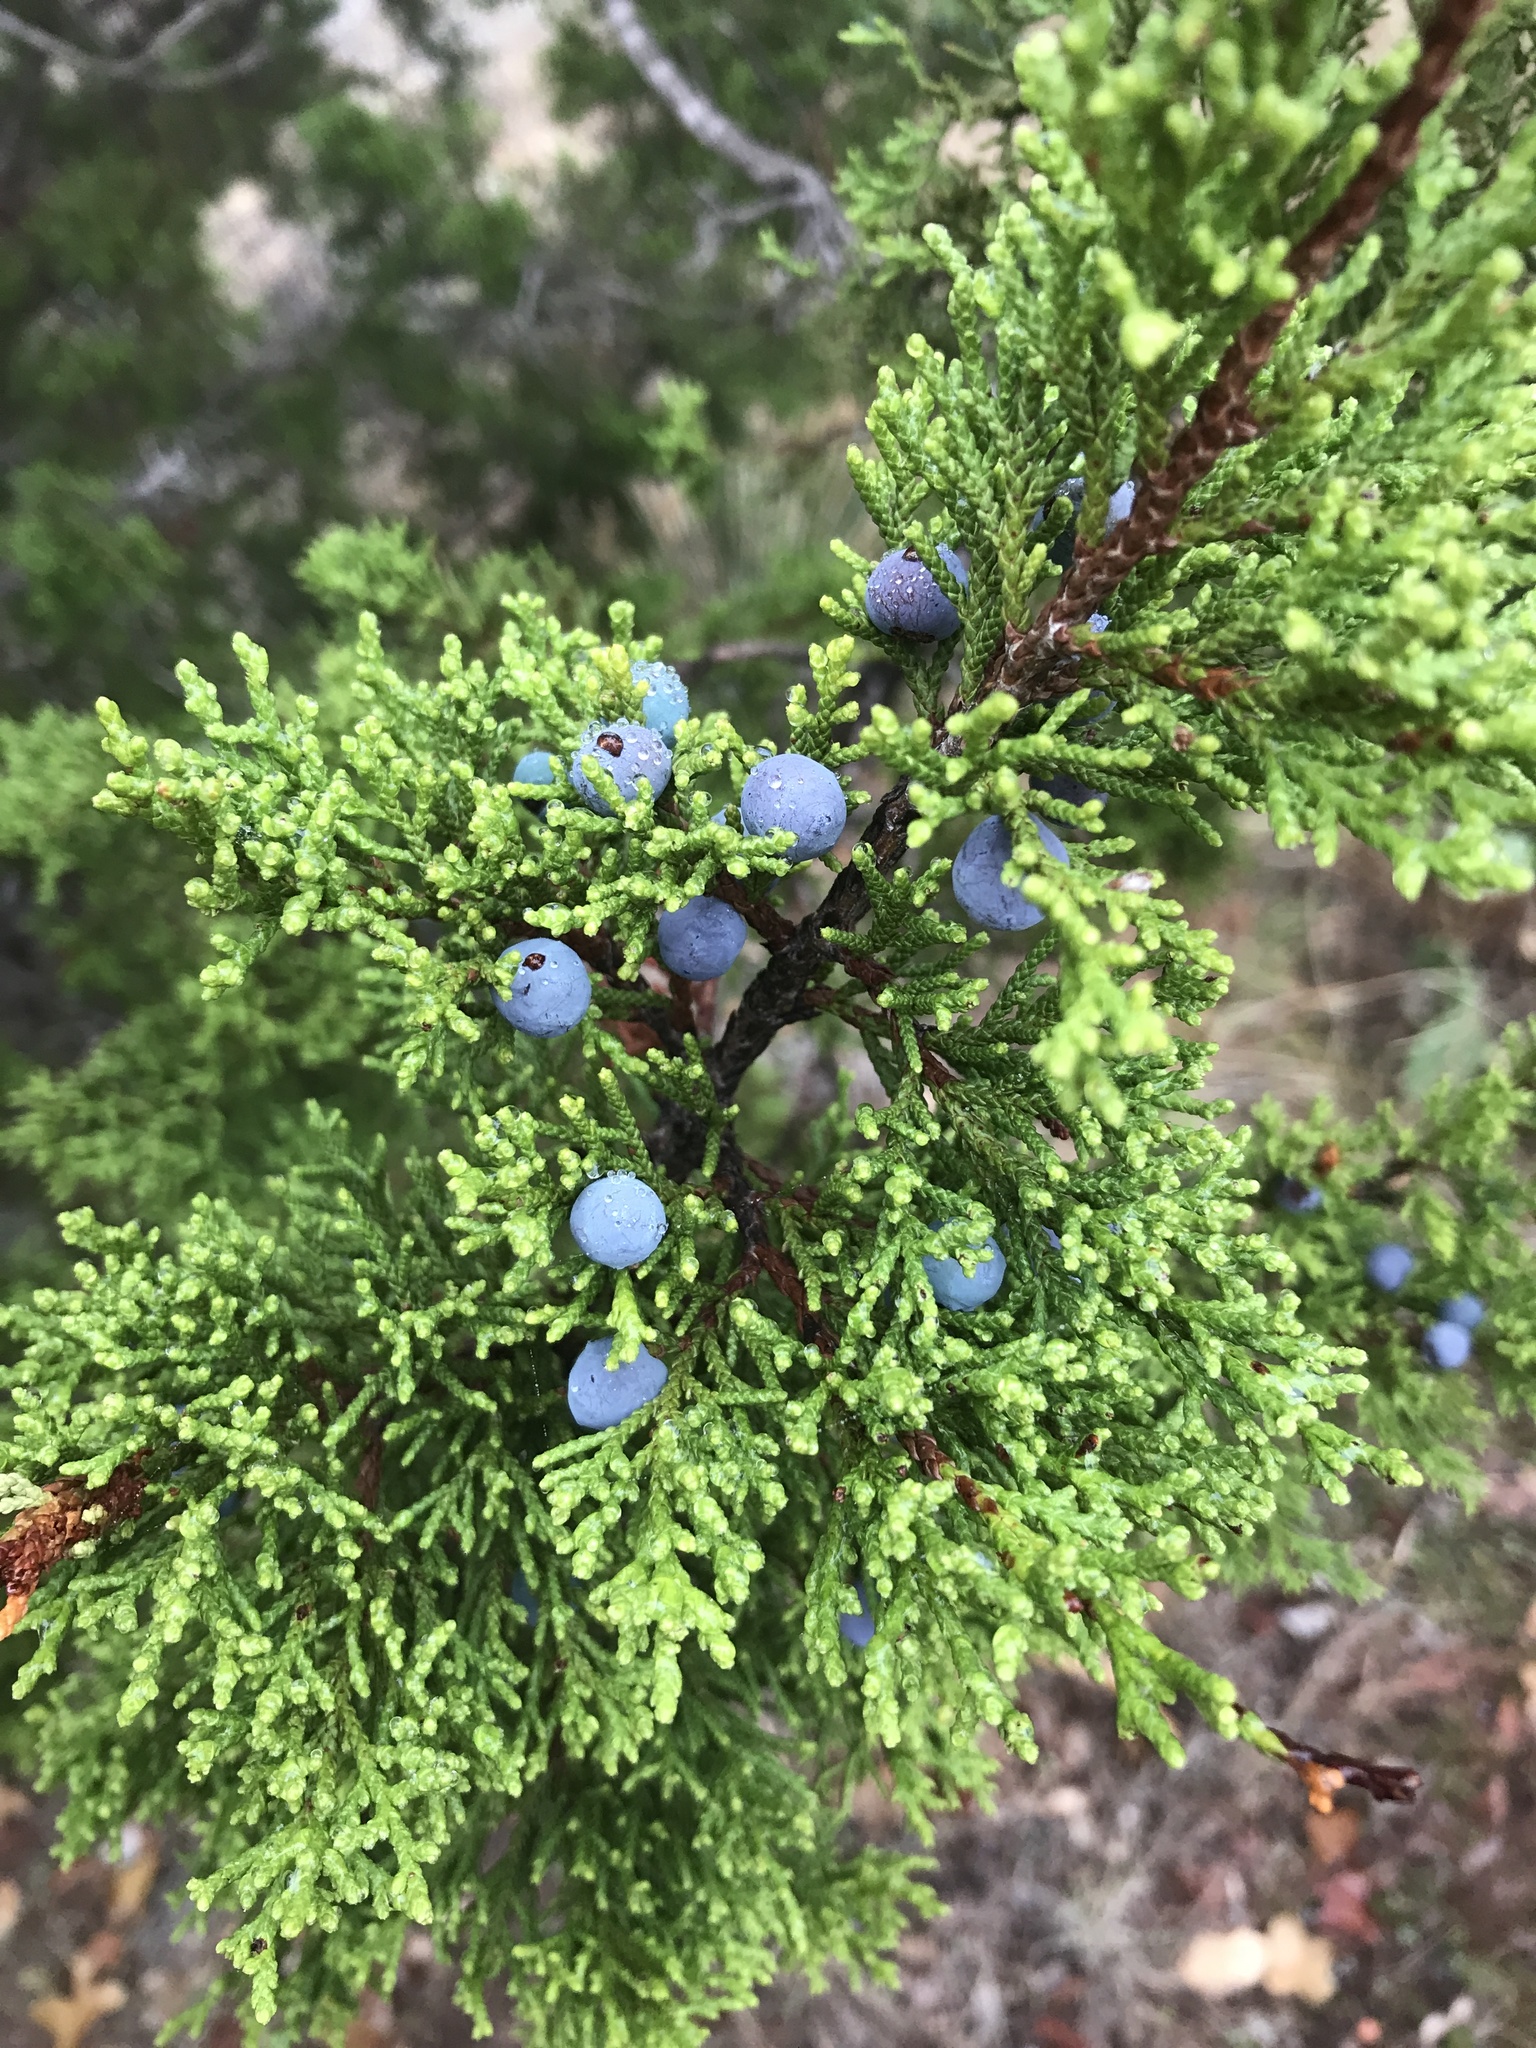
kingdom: Plantae
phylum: Tracheophyta
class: Pinopsida
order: Pinales
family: Cupressaceae
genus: Juniperus
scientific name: Juniperus ashei
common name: Mexican juniper
